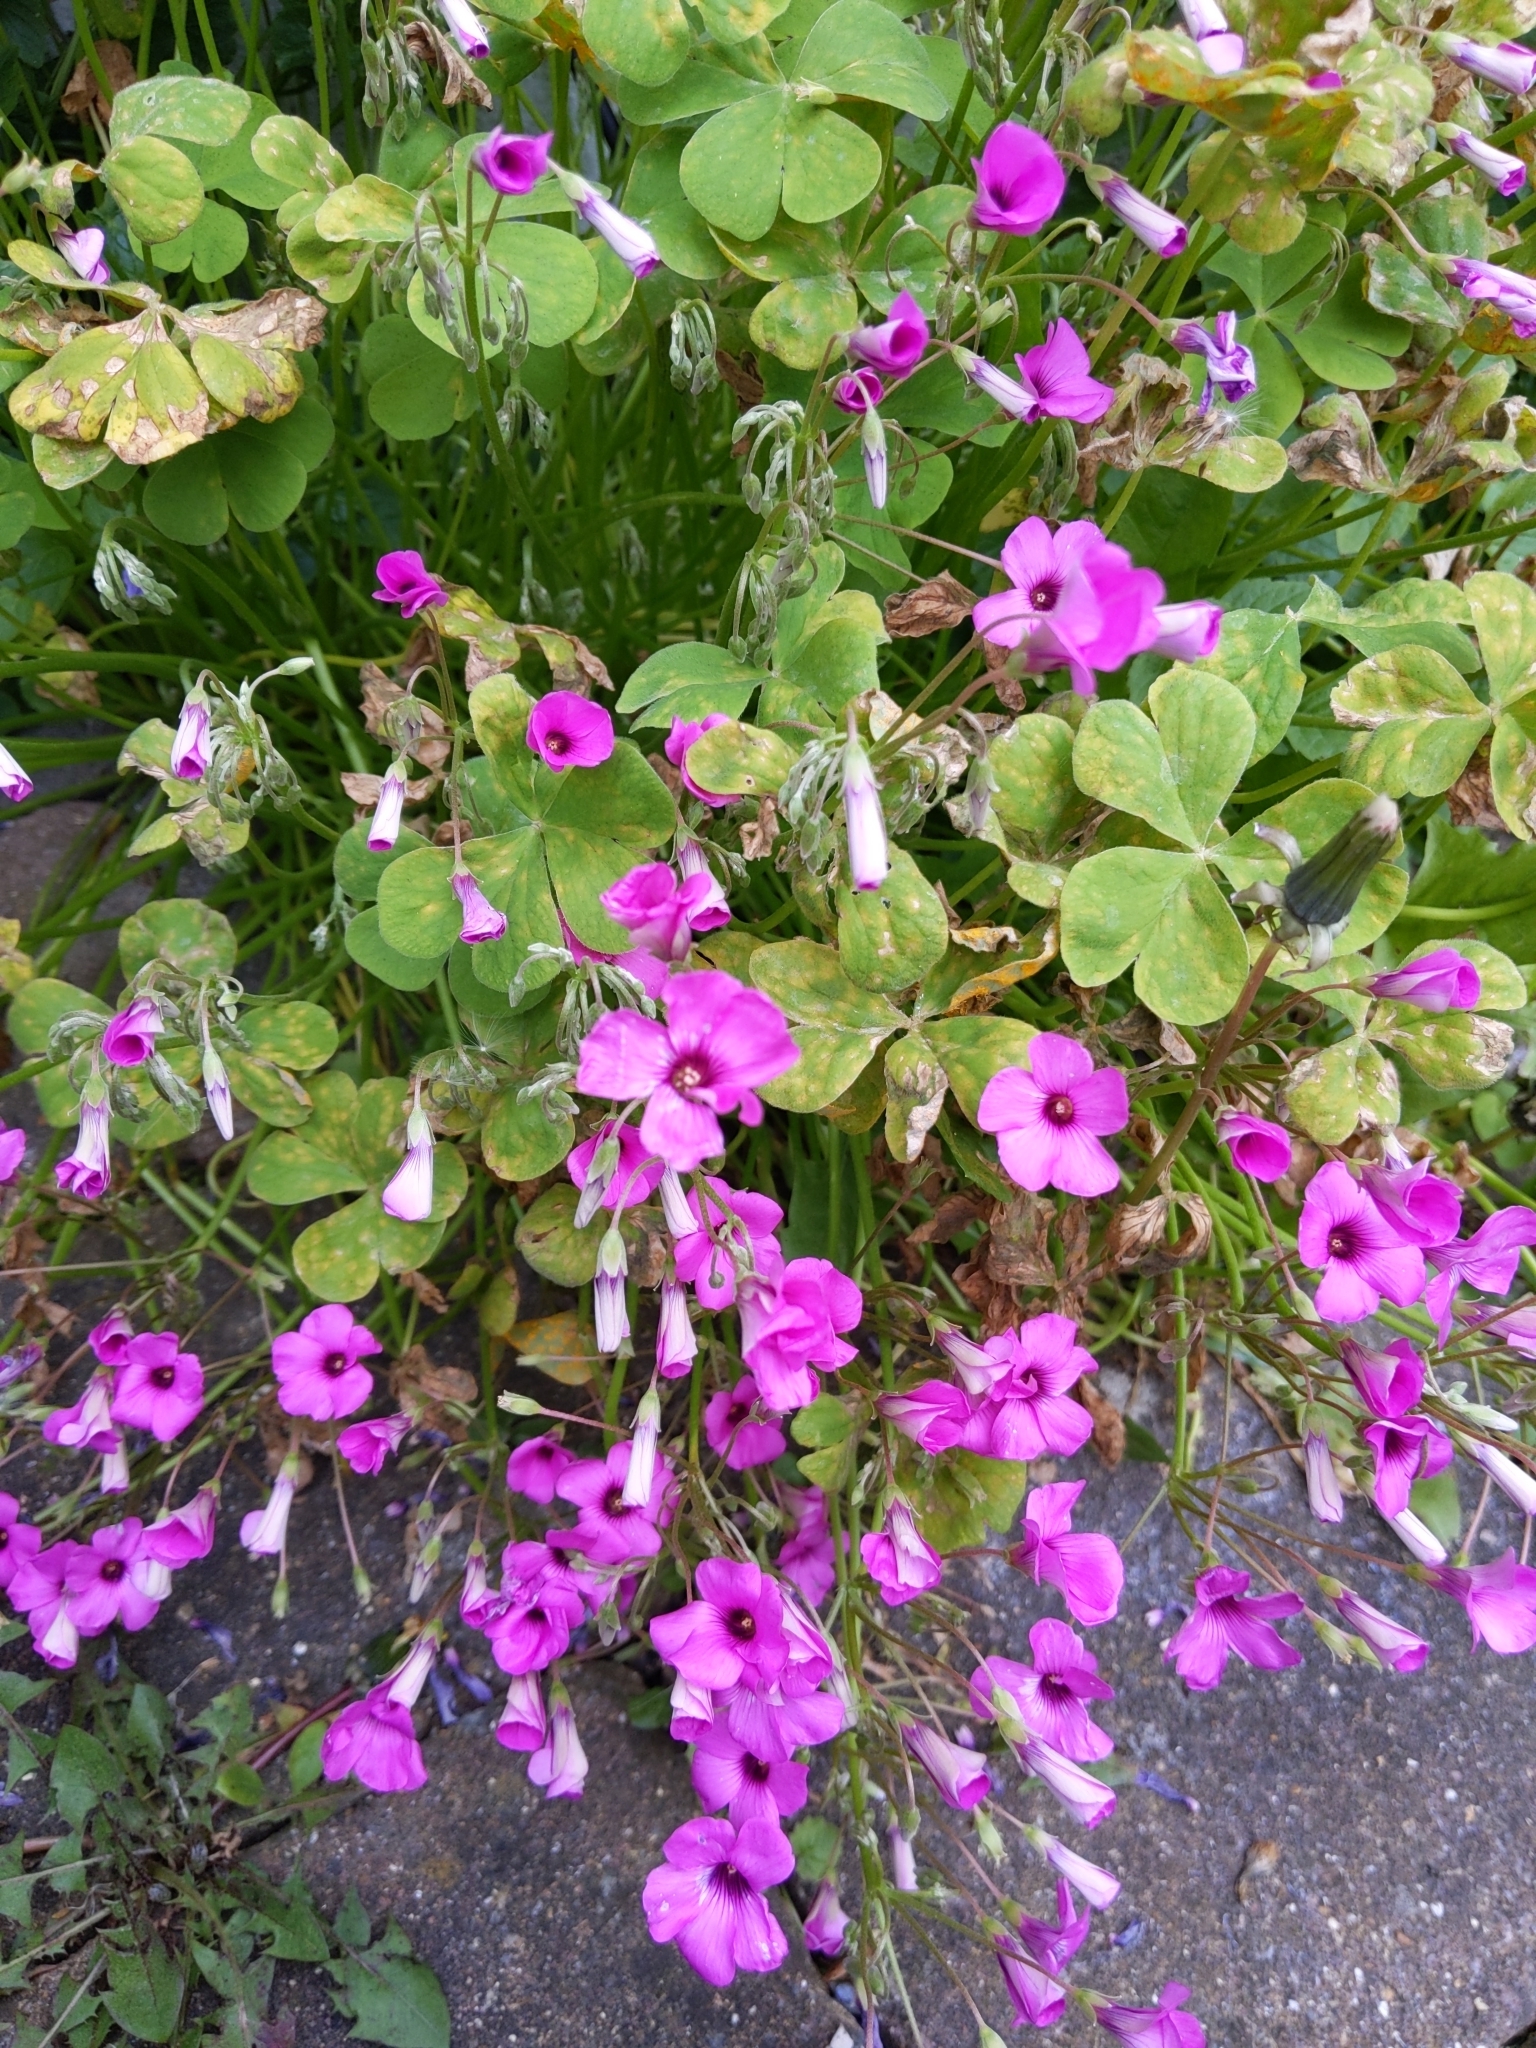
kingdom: Plantae
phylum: Tracheophyta
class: Magnoliopsida
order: Oxalidales
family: Oxalidaceae
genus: Oxalis
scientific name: Oxalis articulata
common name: Pink-sorrel
